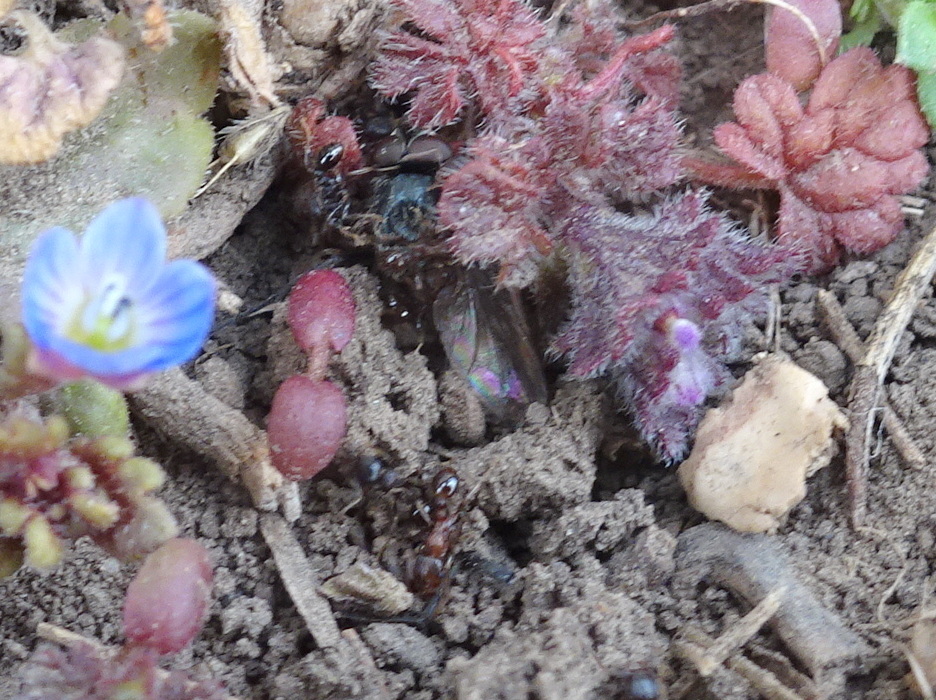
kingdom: Animalia
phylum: Arthropoda
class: Insecta
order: Hymenoptera
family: Formicidae
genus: Tetramorium
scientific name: Tetramorium immigrans
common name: Pavement ant
